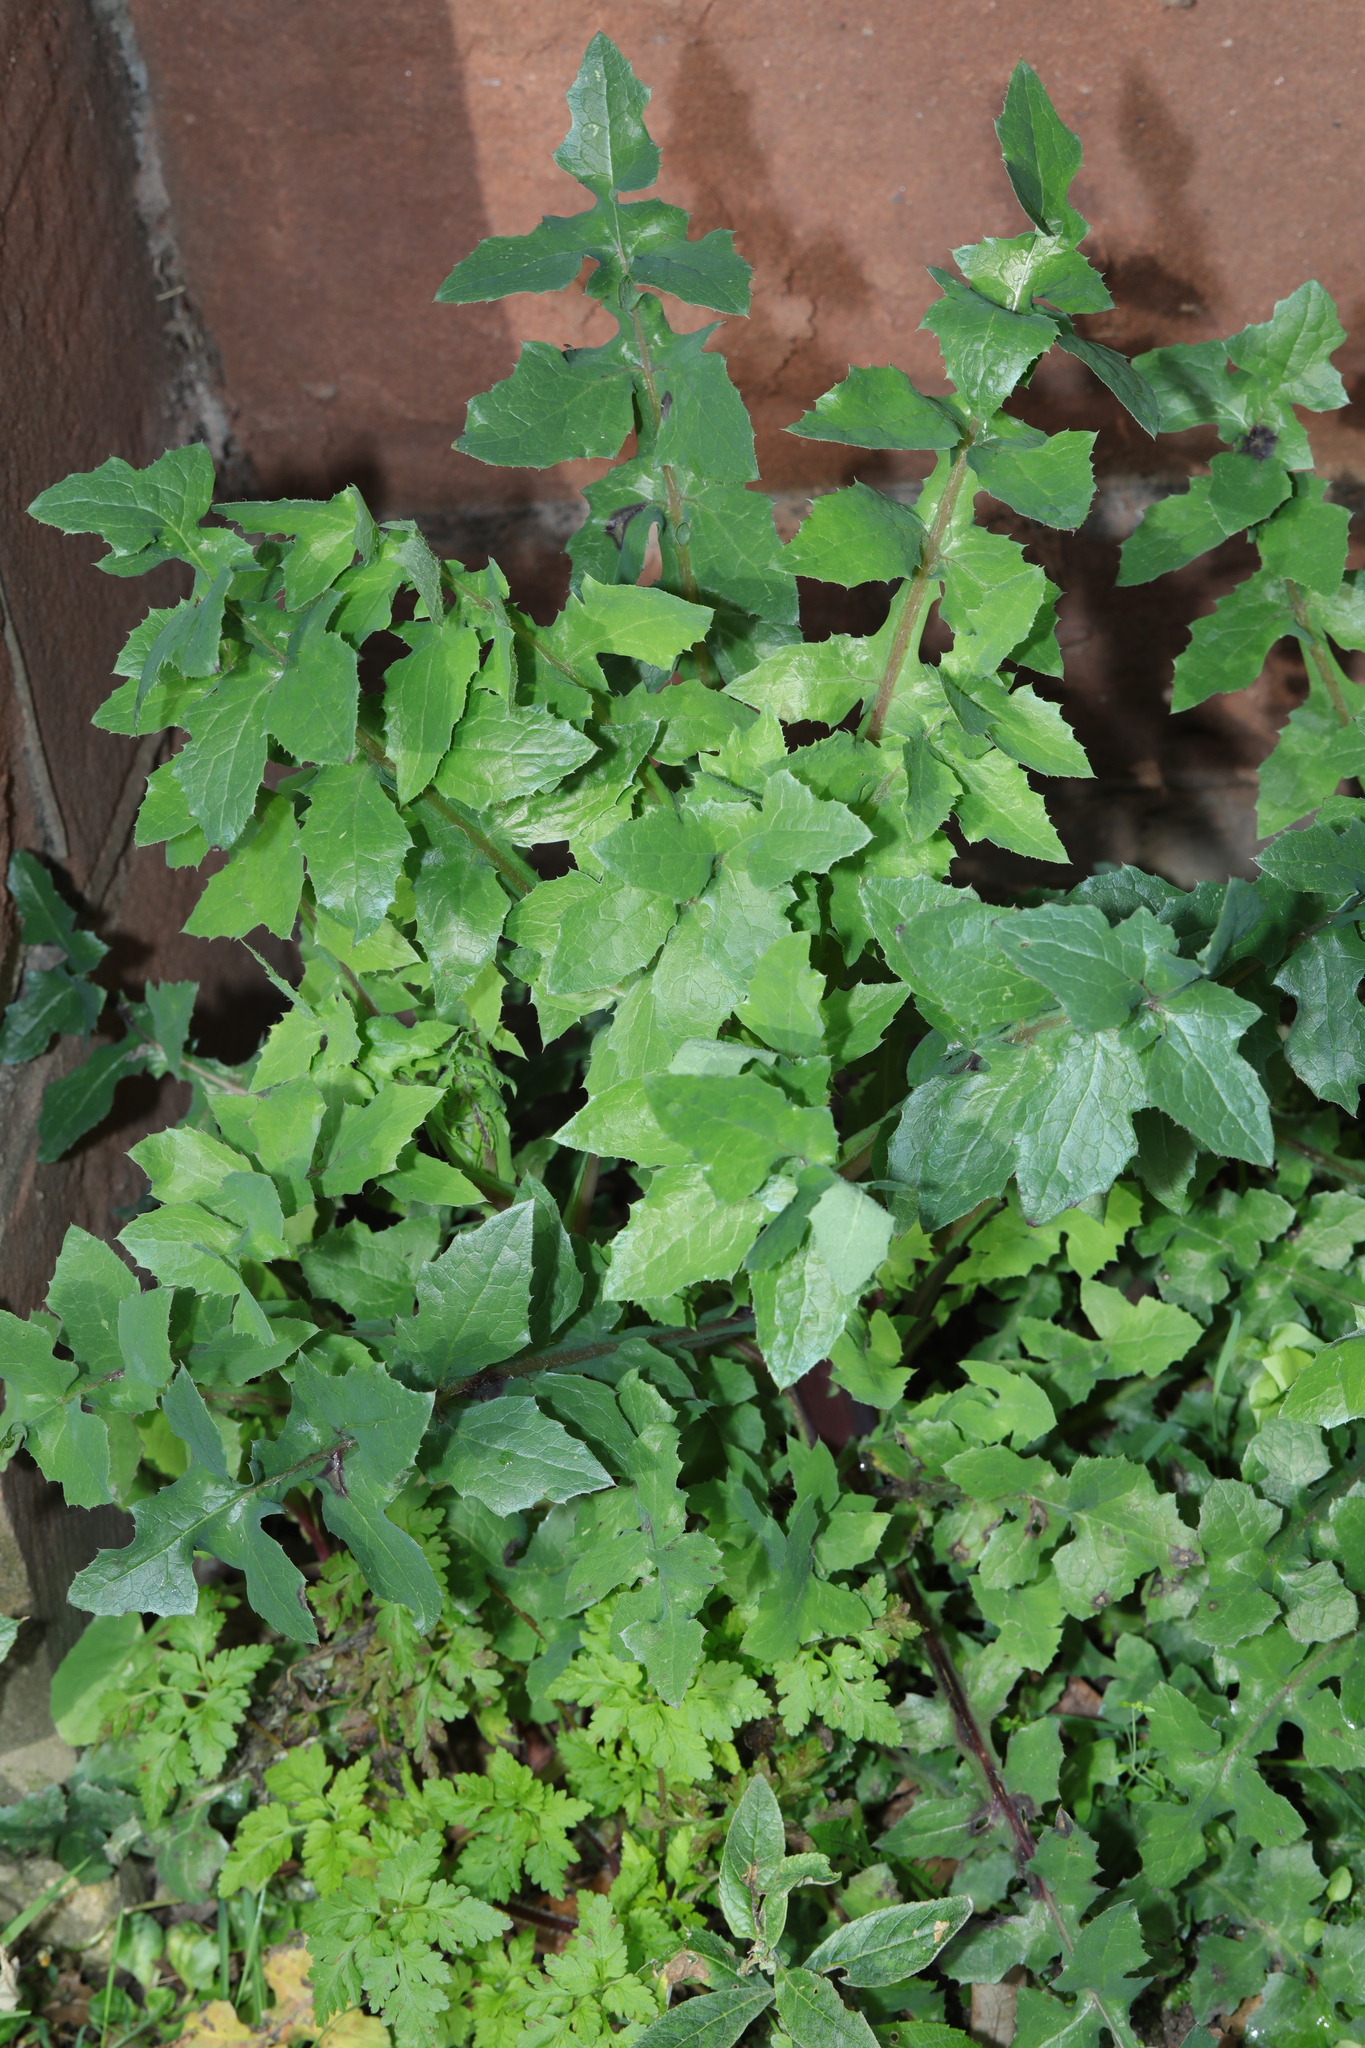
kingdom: Plantae
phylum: Tracheophyta
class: Magnoliopsida
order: Asterales
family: Asteraceae
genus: Sonchus
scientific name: Sonchus oleraceus
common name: Common sowthistle
